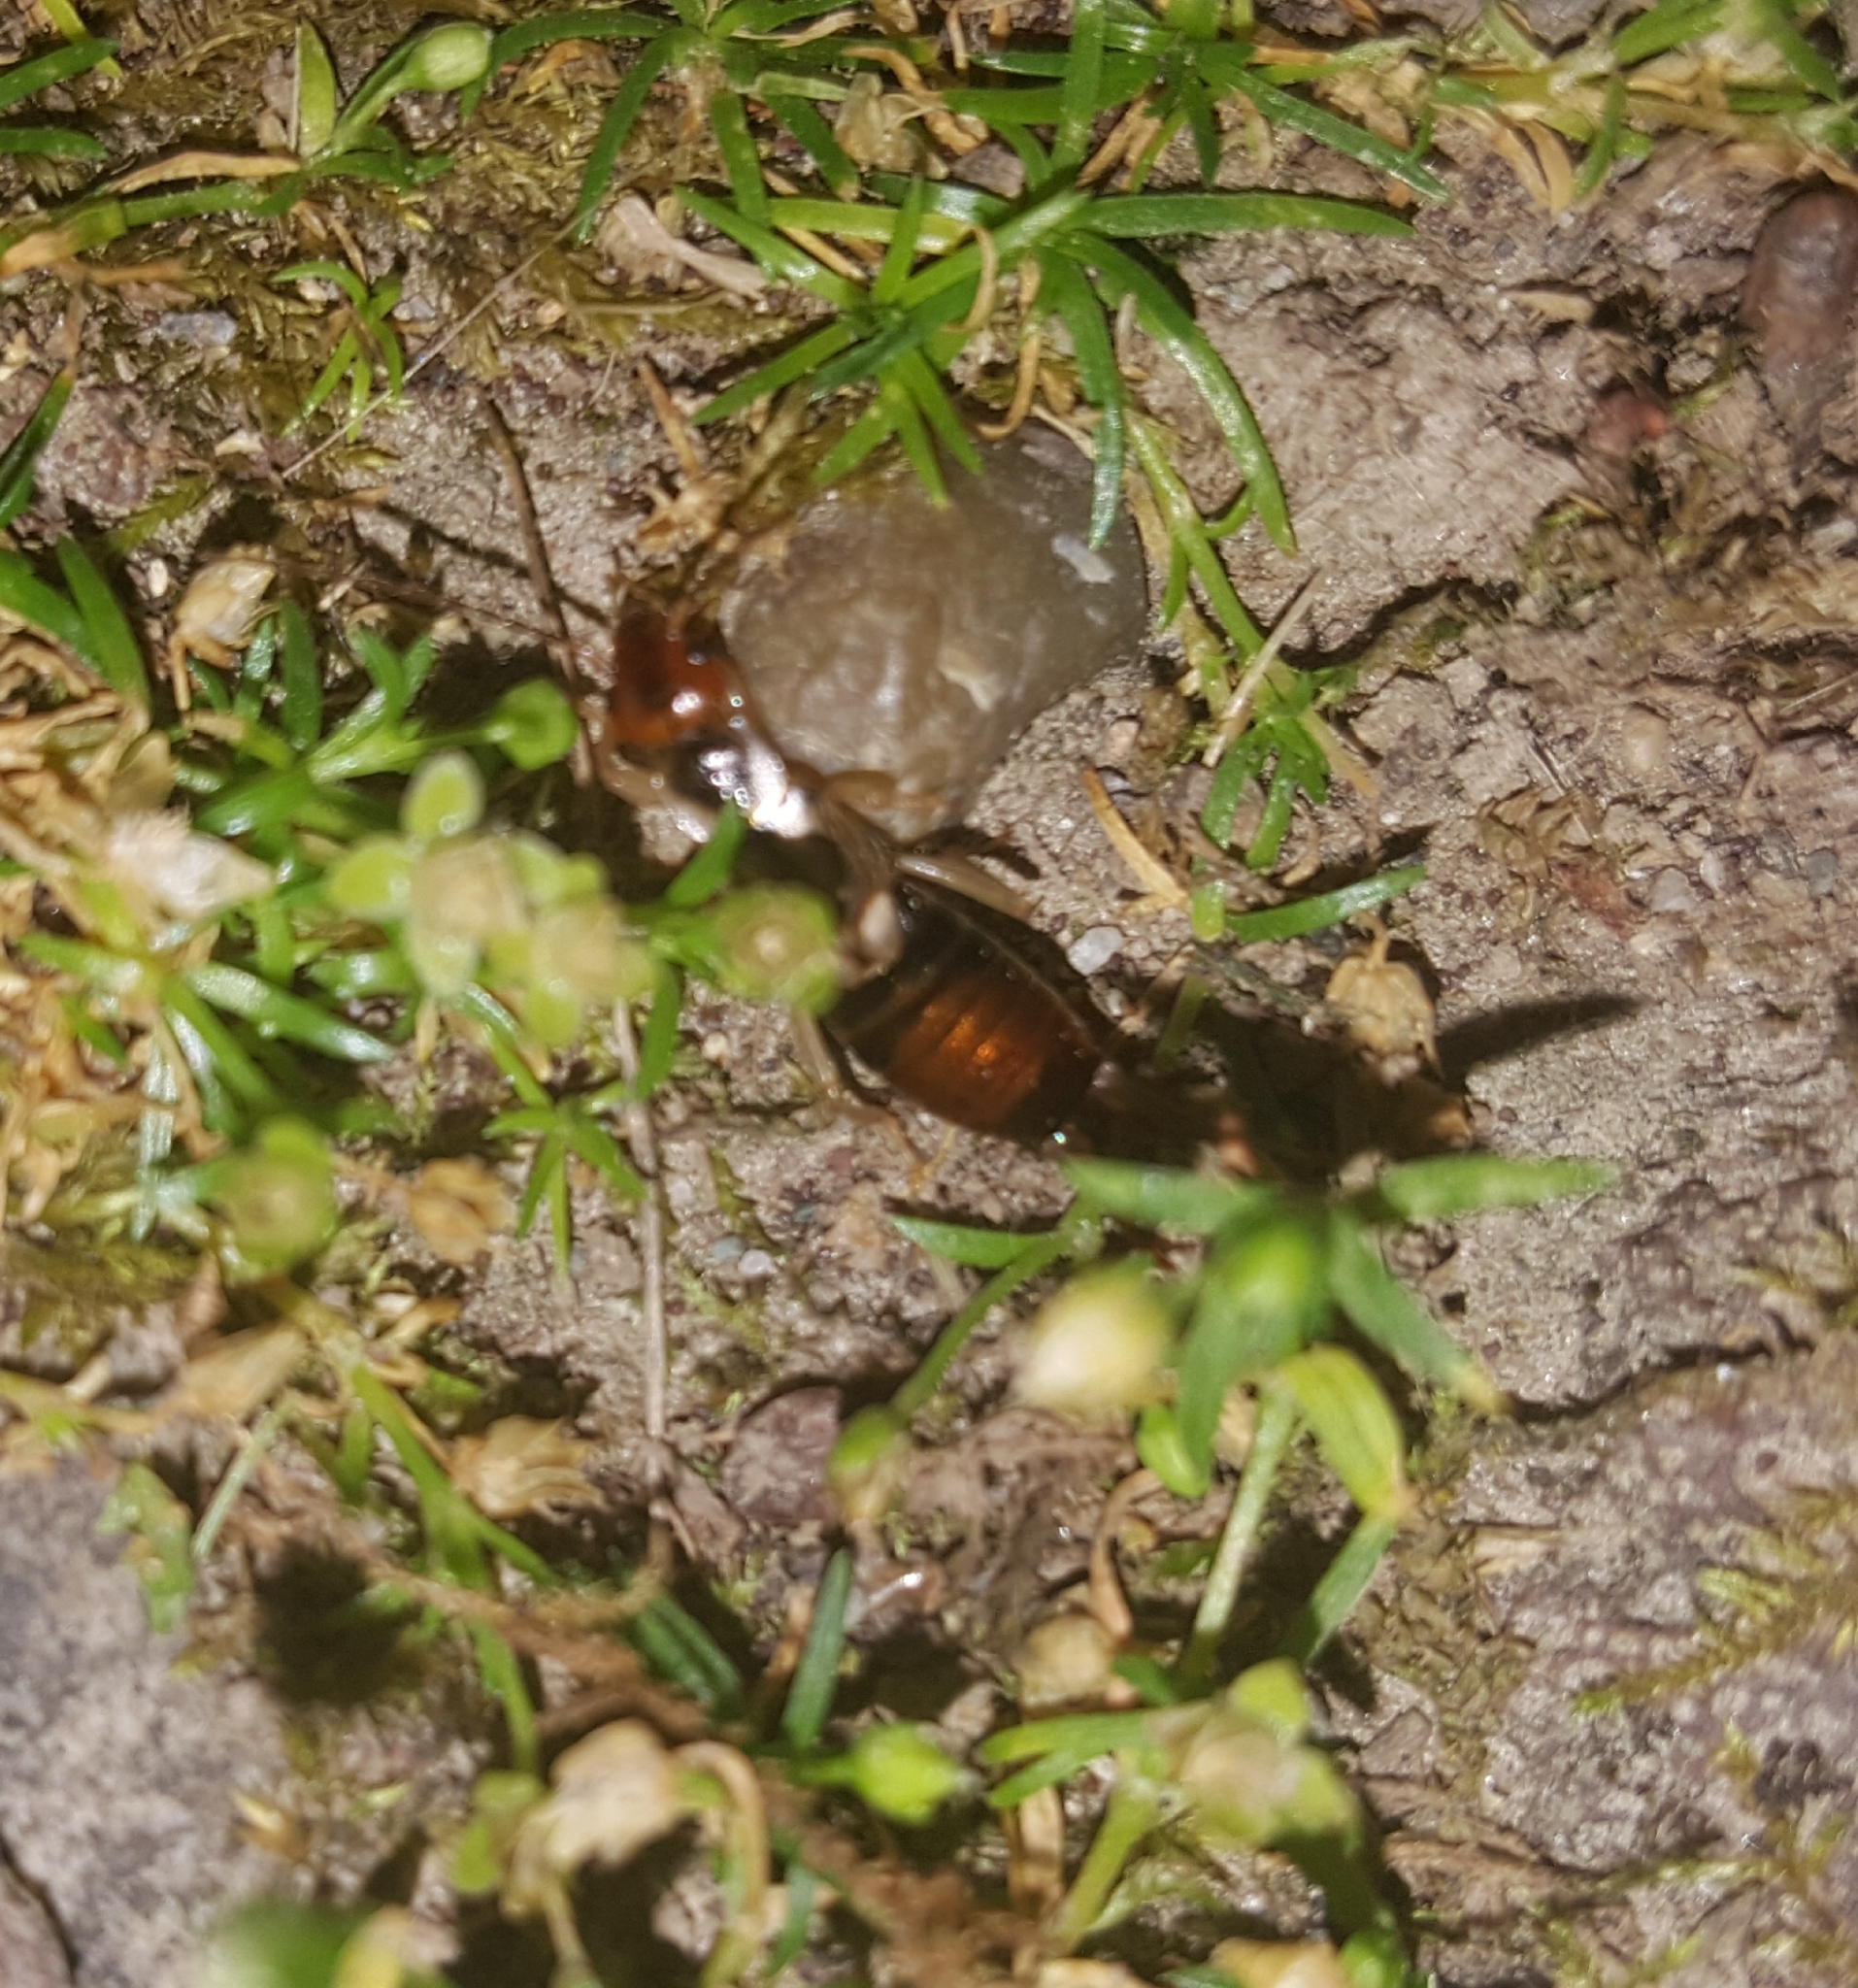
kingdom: Animalia
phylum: Arthropoda
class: Insecta
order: Dermaptera
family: Forficulidae
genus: Forficula
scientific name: Forficula
